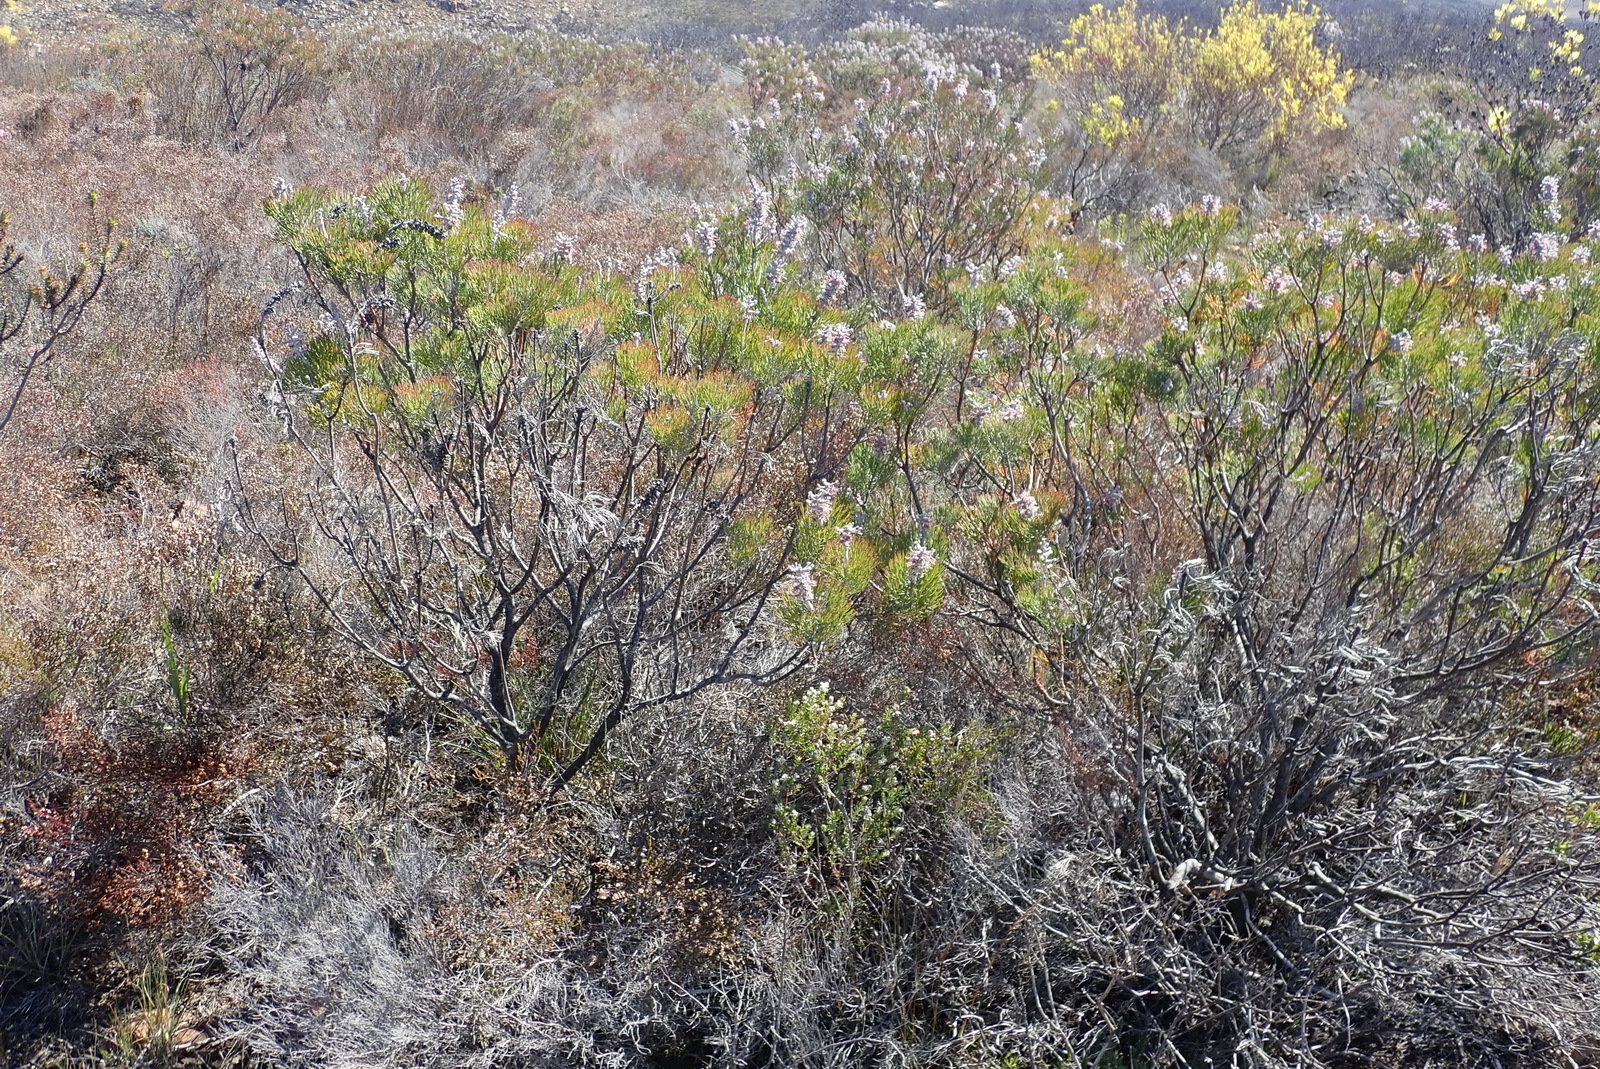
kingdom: Plantae
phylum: Tracheophyta
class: Magnoliopsida
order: Proteales
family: Proteaceae
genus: Paranomus
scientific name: Paranomus dispersus
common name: Long-head sceptre
